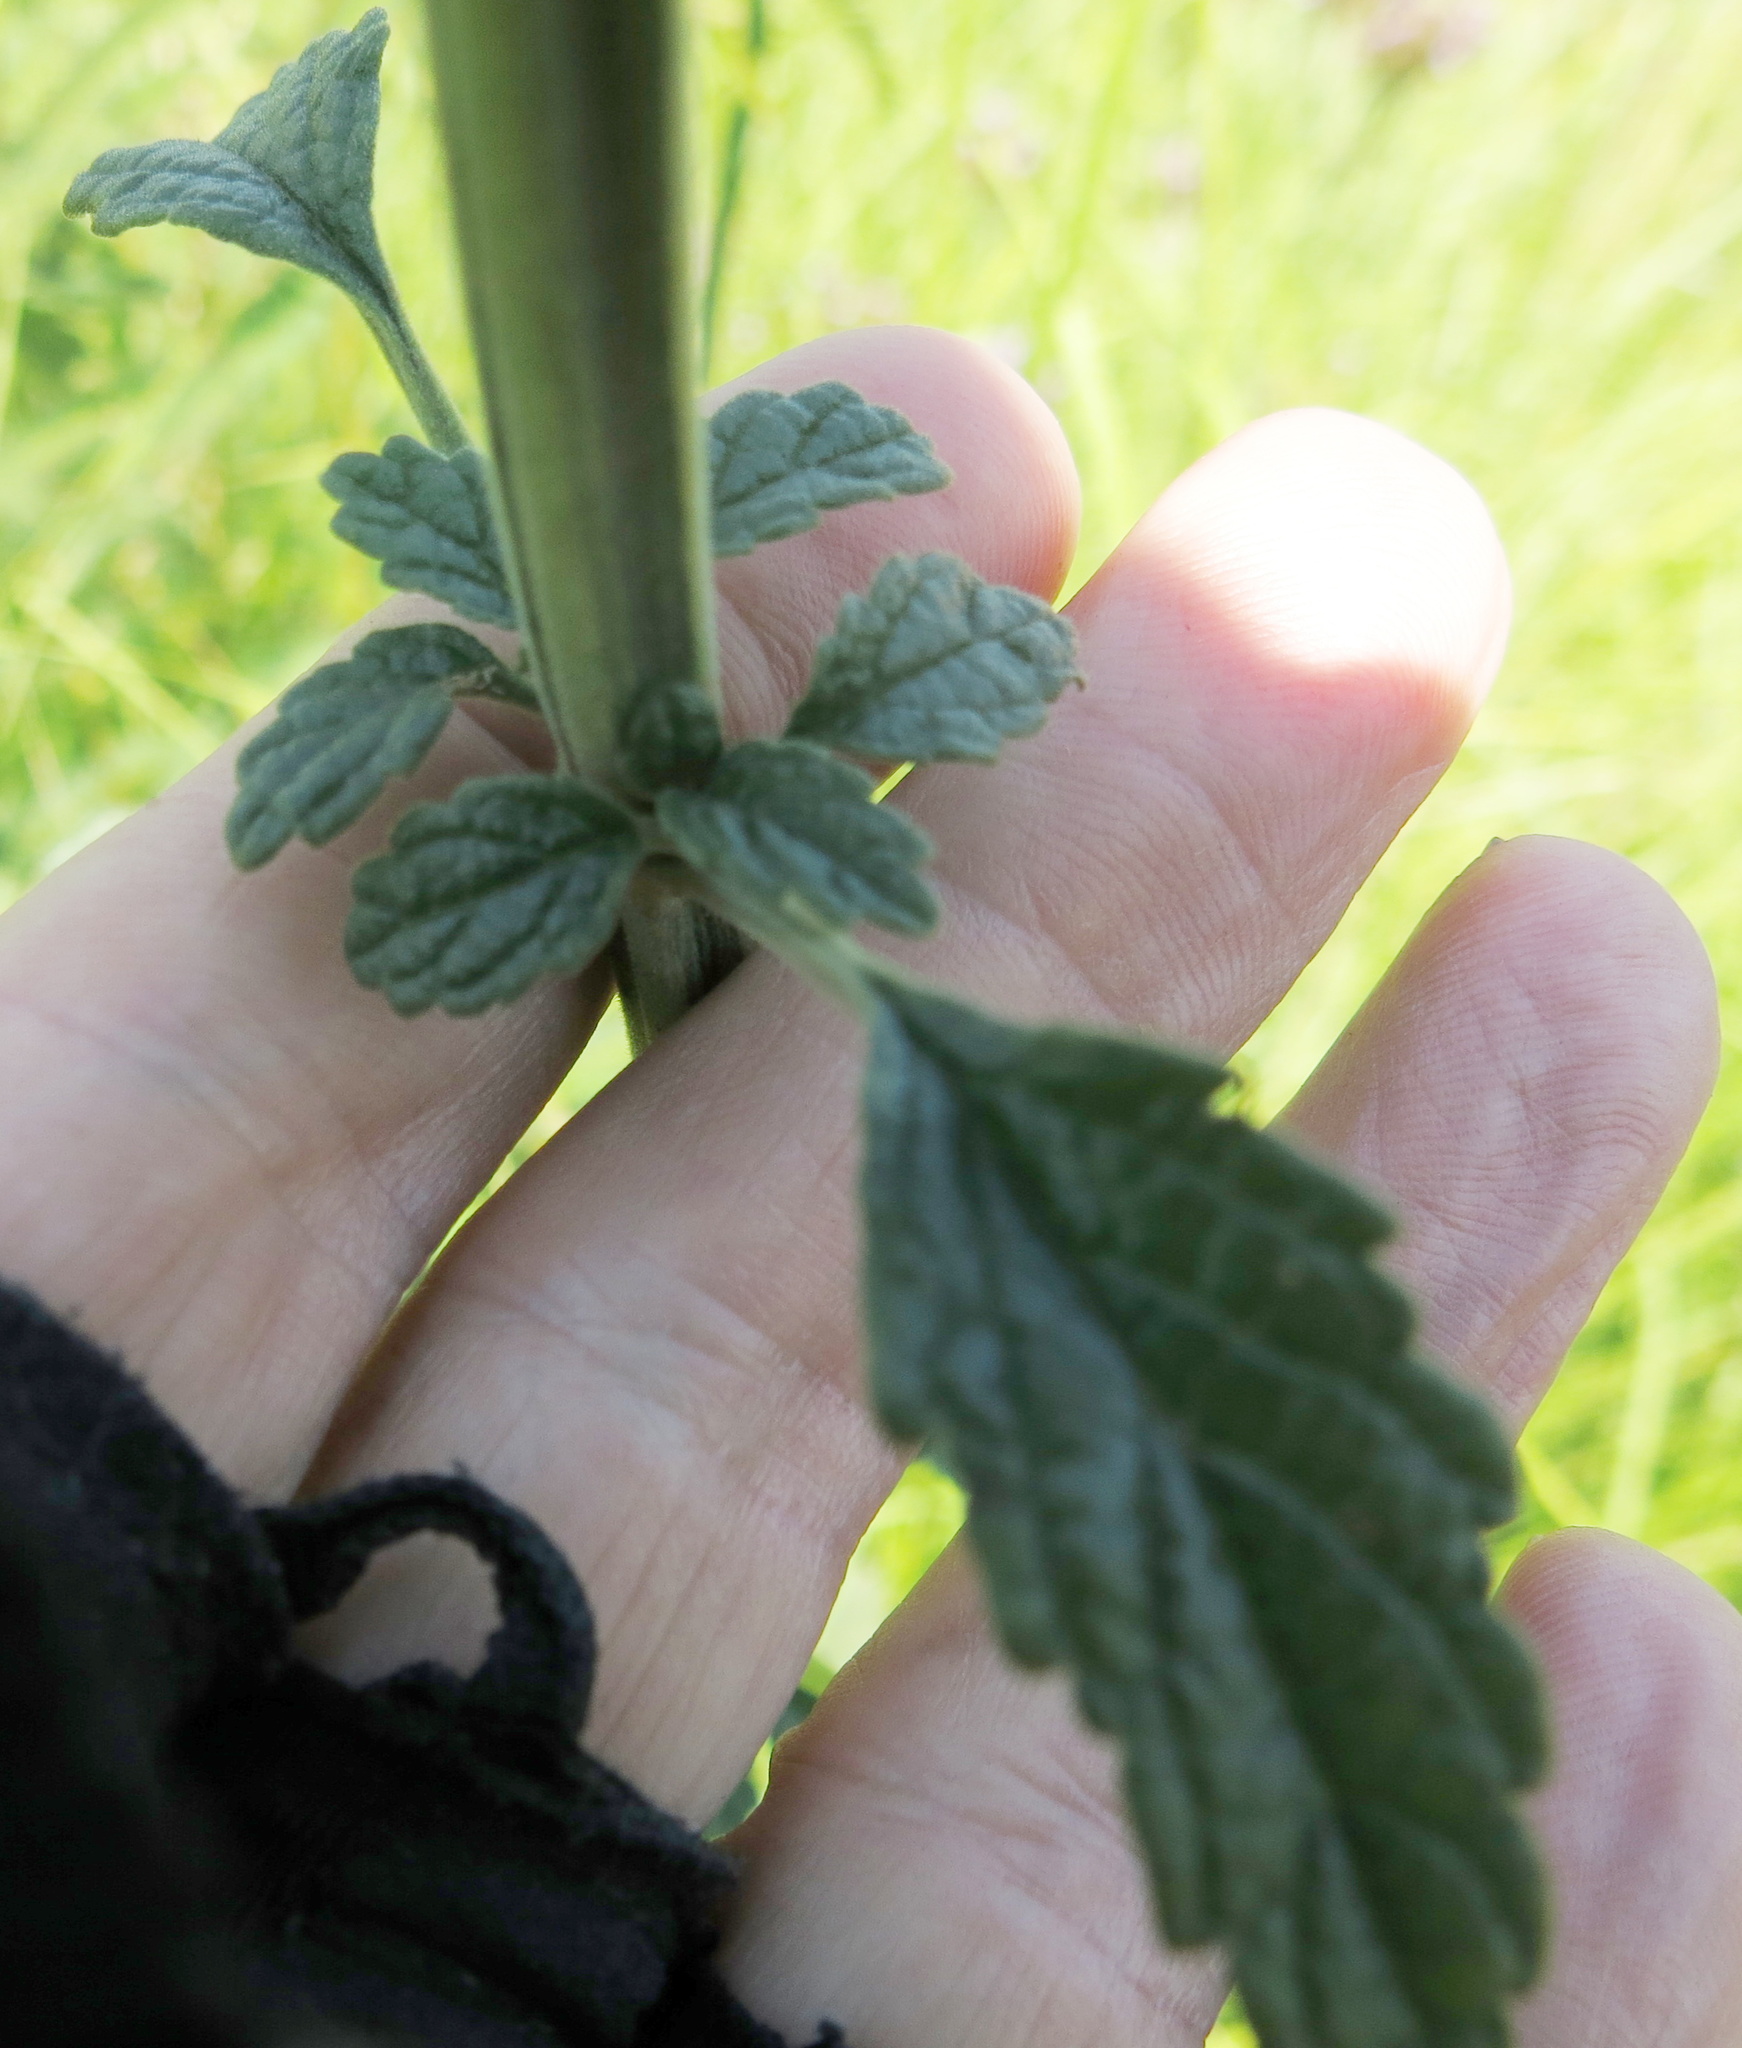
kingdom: Plantae
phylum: Tracheophyta
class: Magnoliopsida
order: Lamiales
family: Lamiaceae
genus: Leonotis
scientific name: Leonotis ocymifolia
